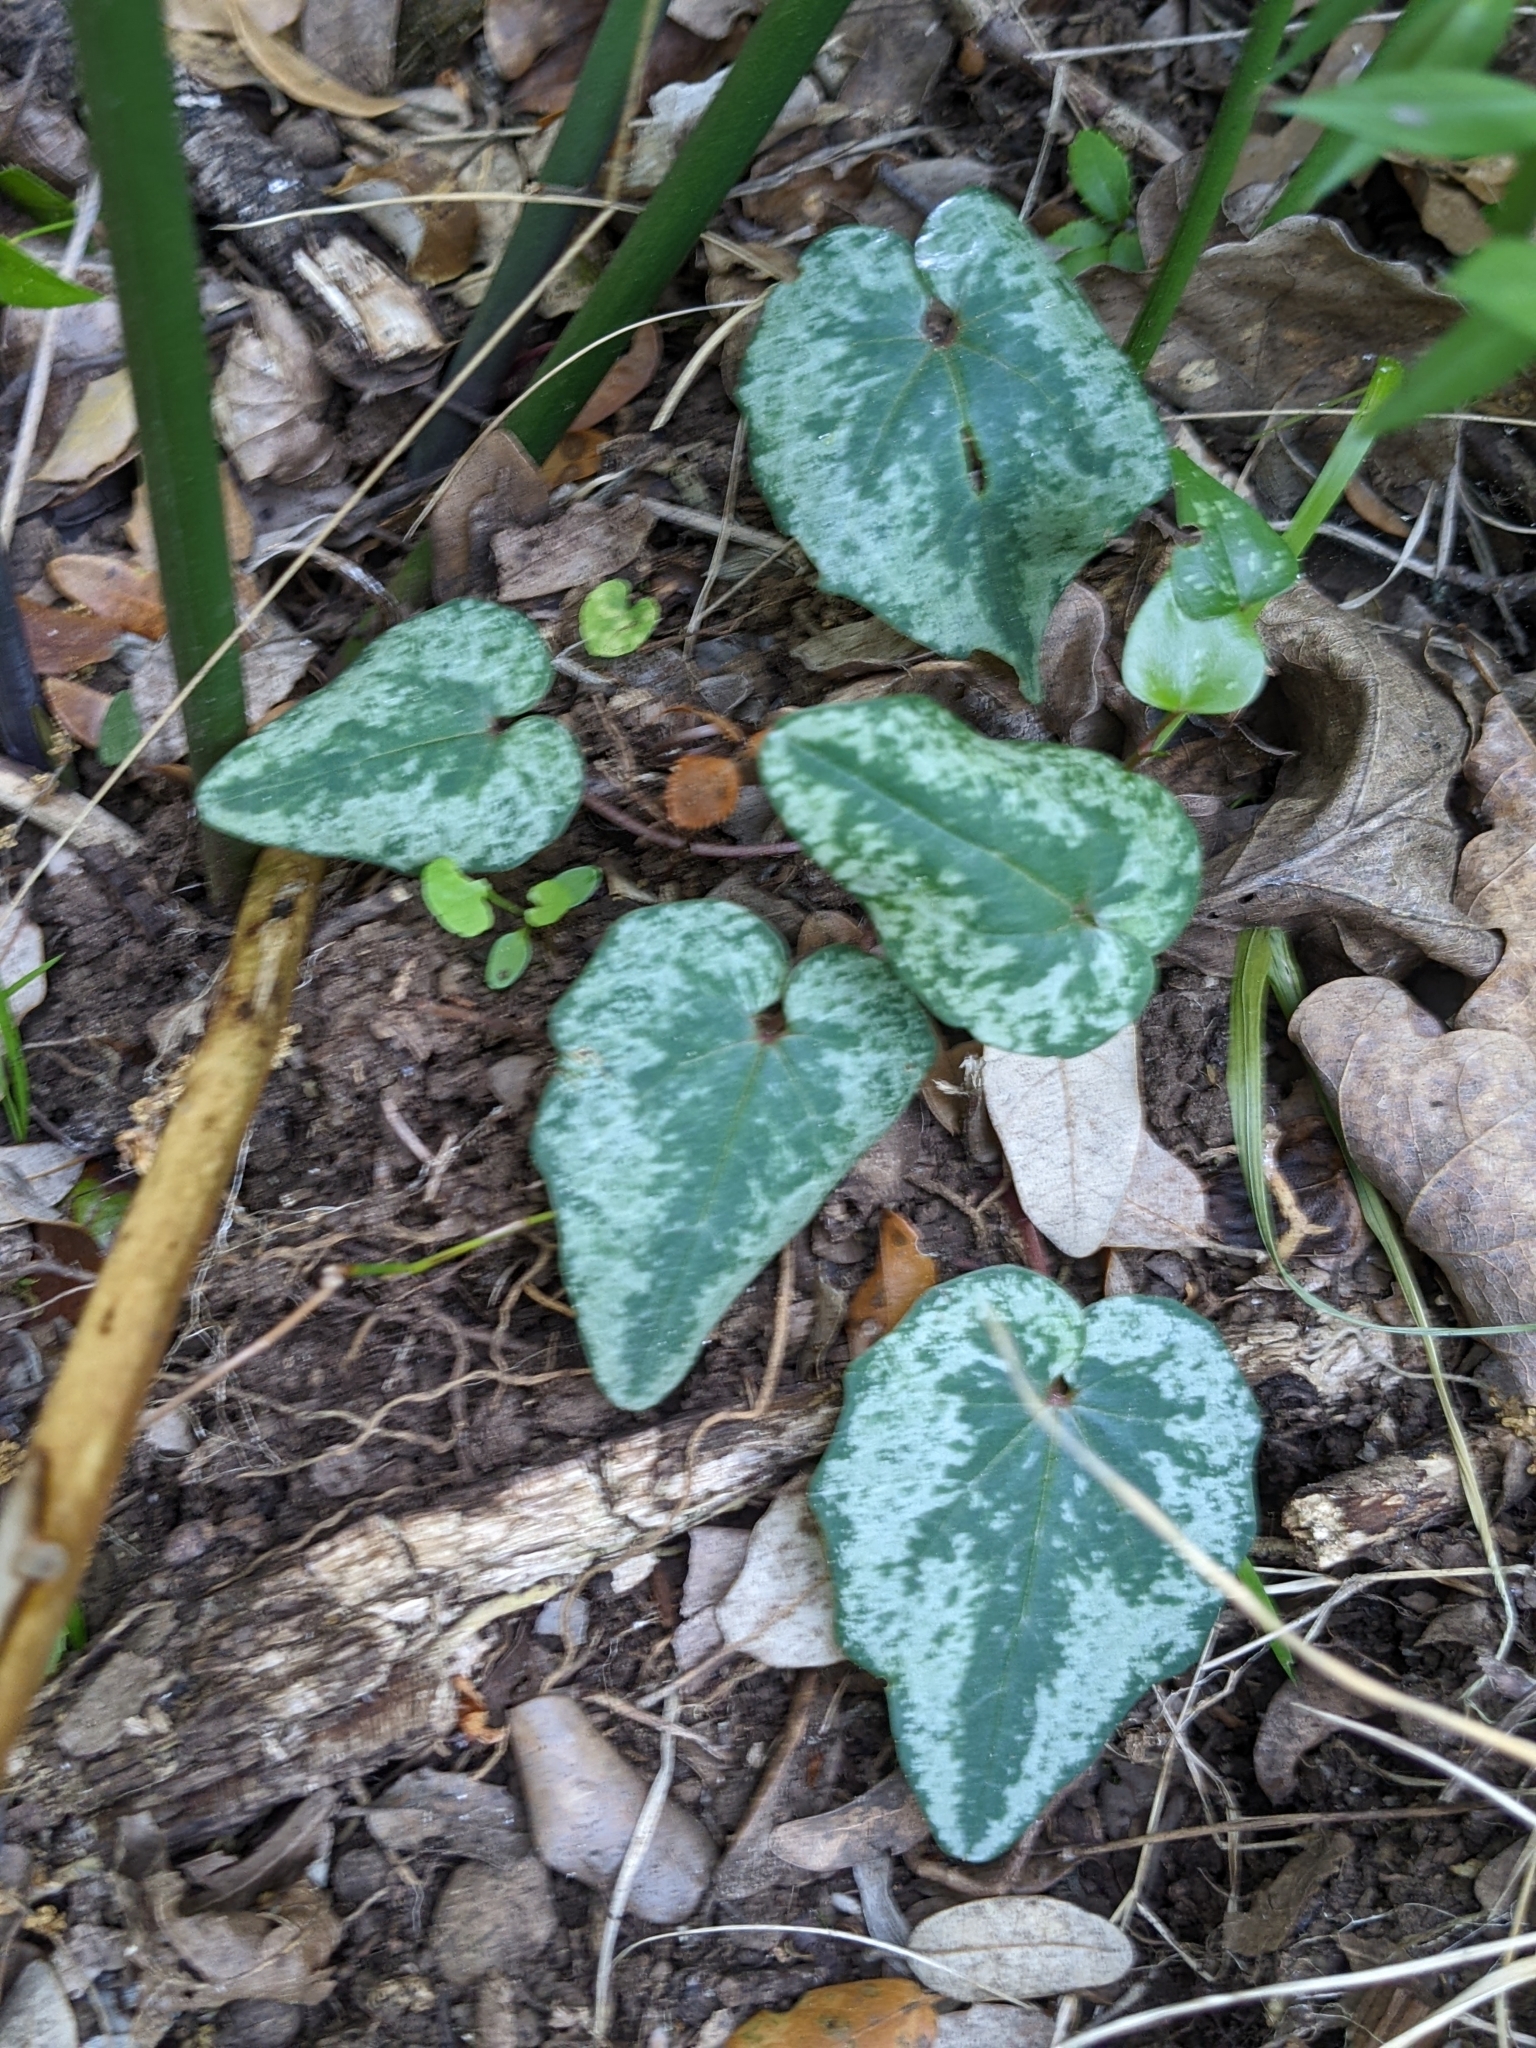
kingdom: Plantae
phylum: Tracheophyta
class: Magnoliopsida
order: Ericales
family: Primulaceae
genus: Cyclamen
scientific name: Cyclamen balearicum
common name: Majorca cyclamen
